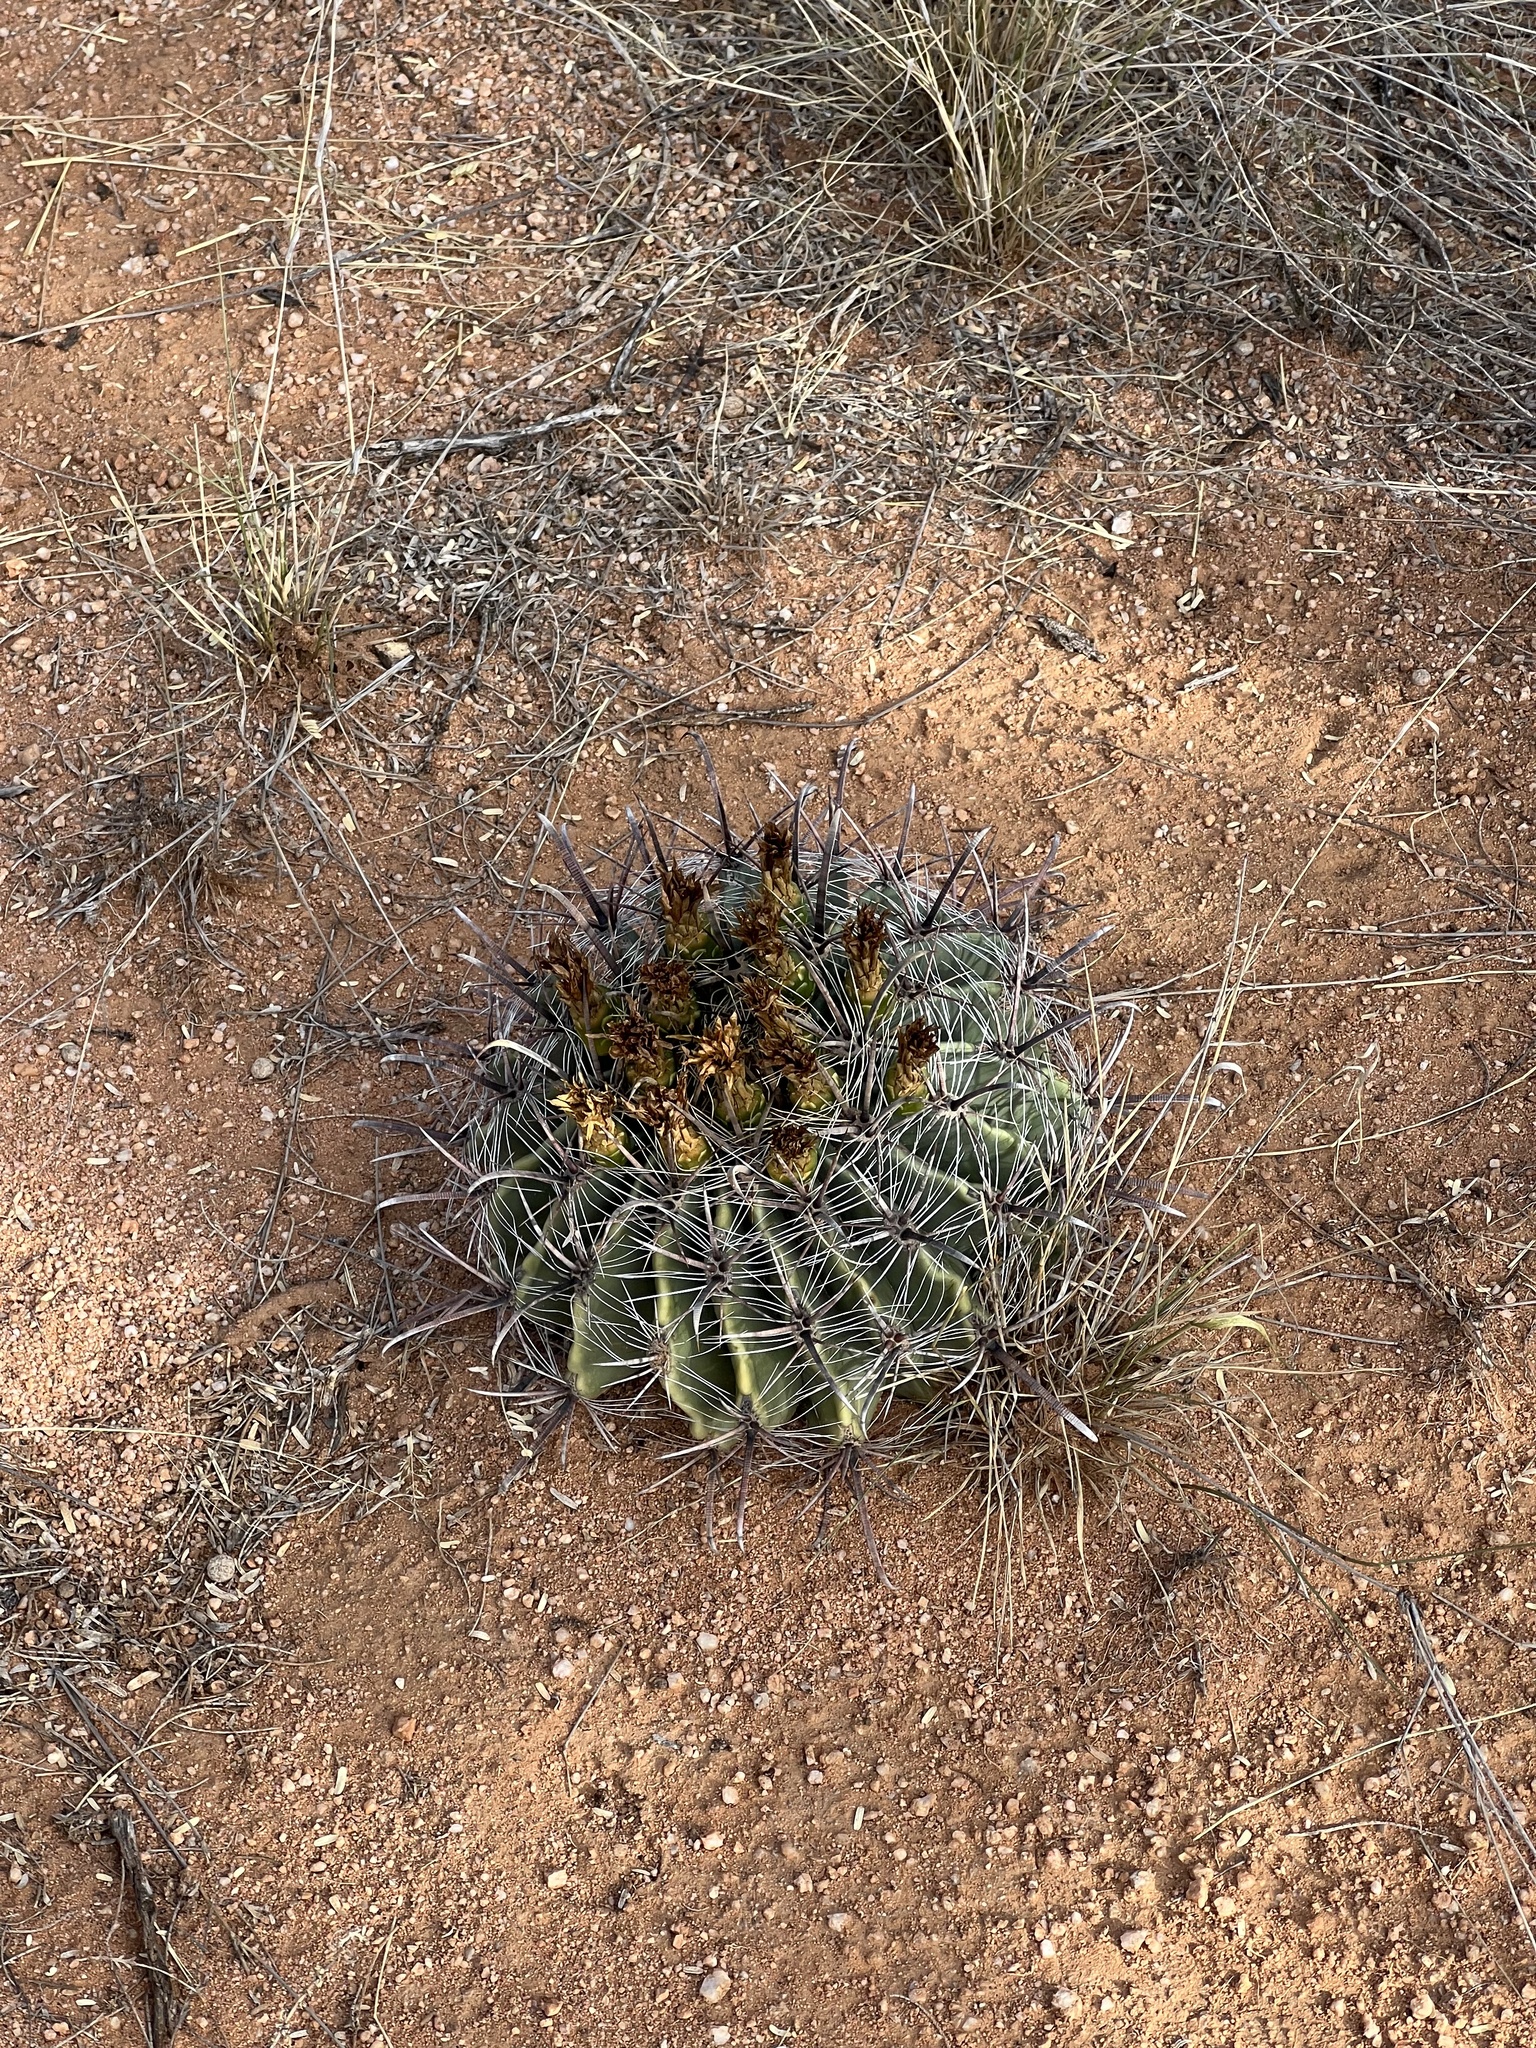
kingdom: Plantae
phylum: Tracheophyta
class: Magnoliopsida
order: Caryophyllales
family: Cactaceae
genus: Ferocactus
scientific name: Ferocactus wislizeni
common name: Candy barrel cactus
